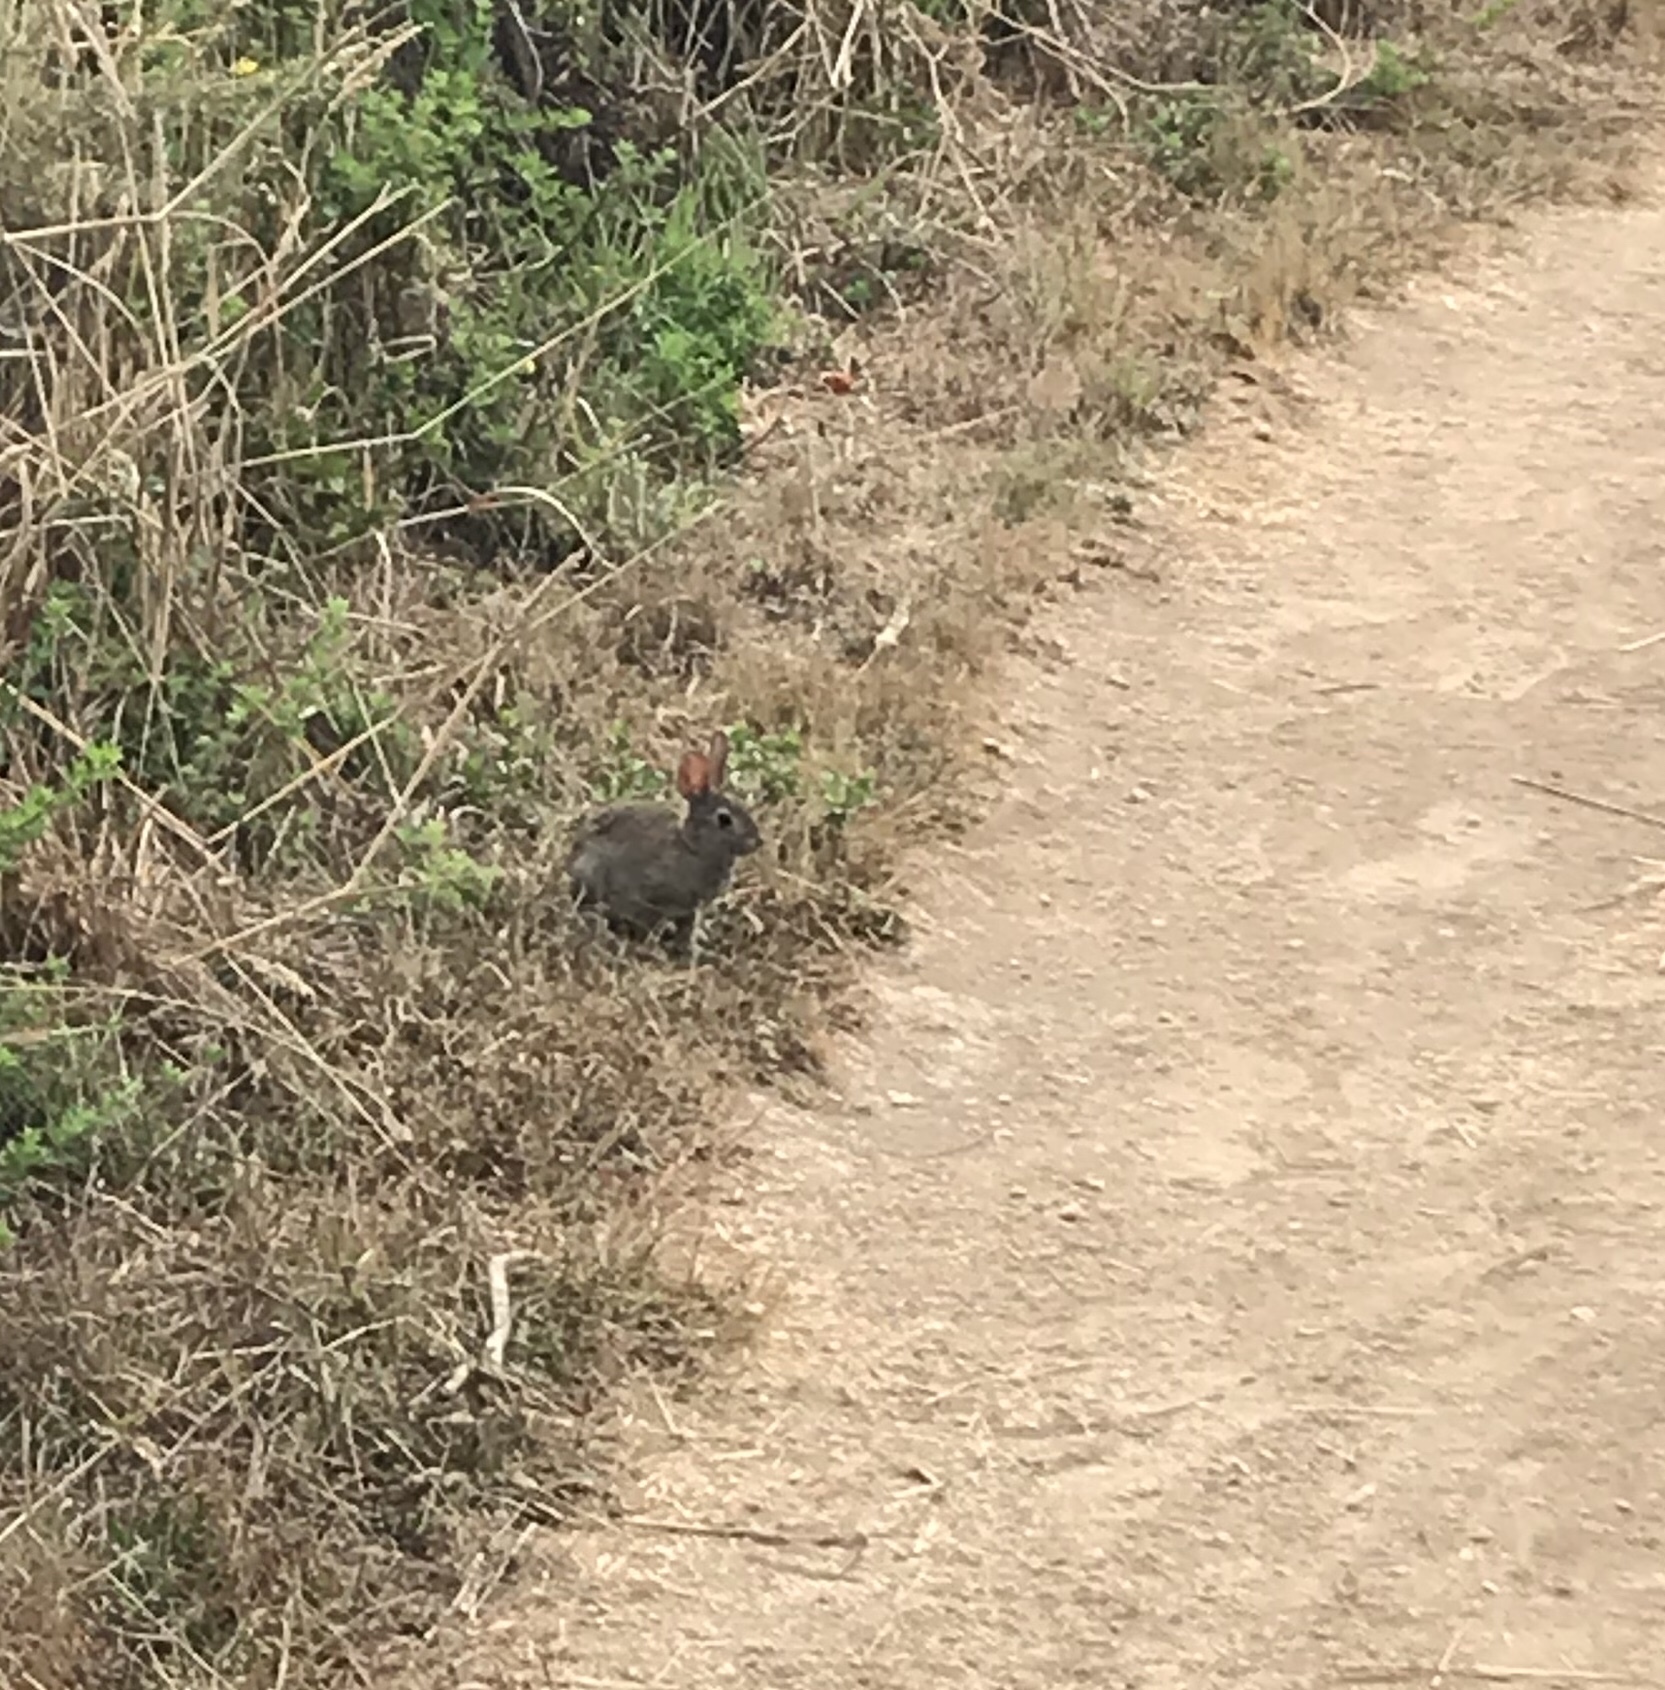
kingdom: Animalia
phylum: Chordata
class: Mammalia
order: Lagomorpha
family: Leporidae
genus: Sylvilagus
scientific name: Sylvilagus bachmani
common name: Brush rabbit
